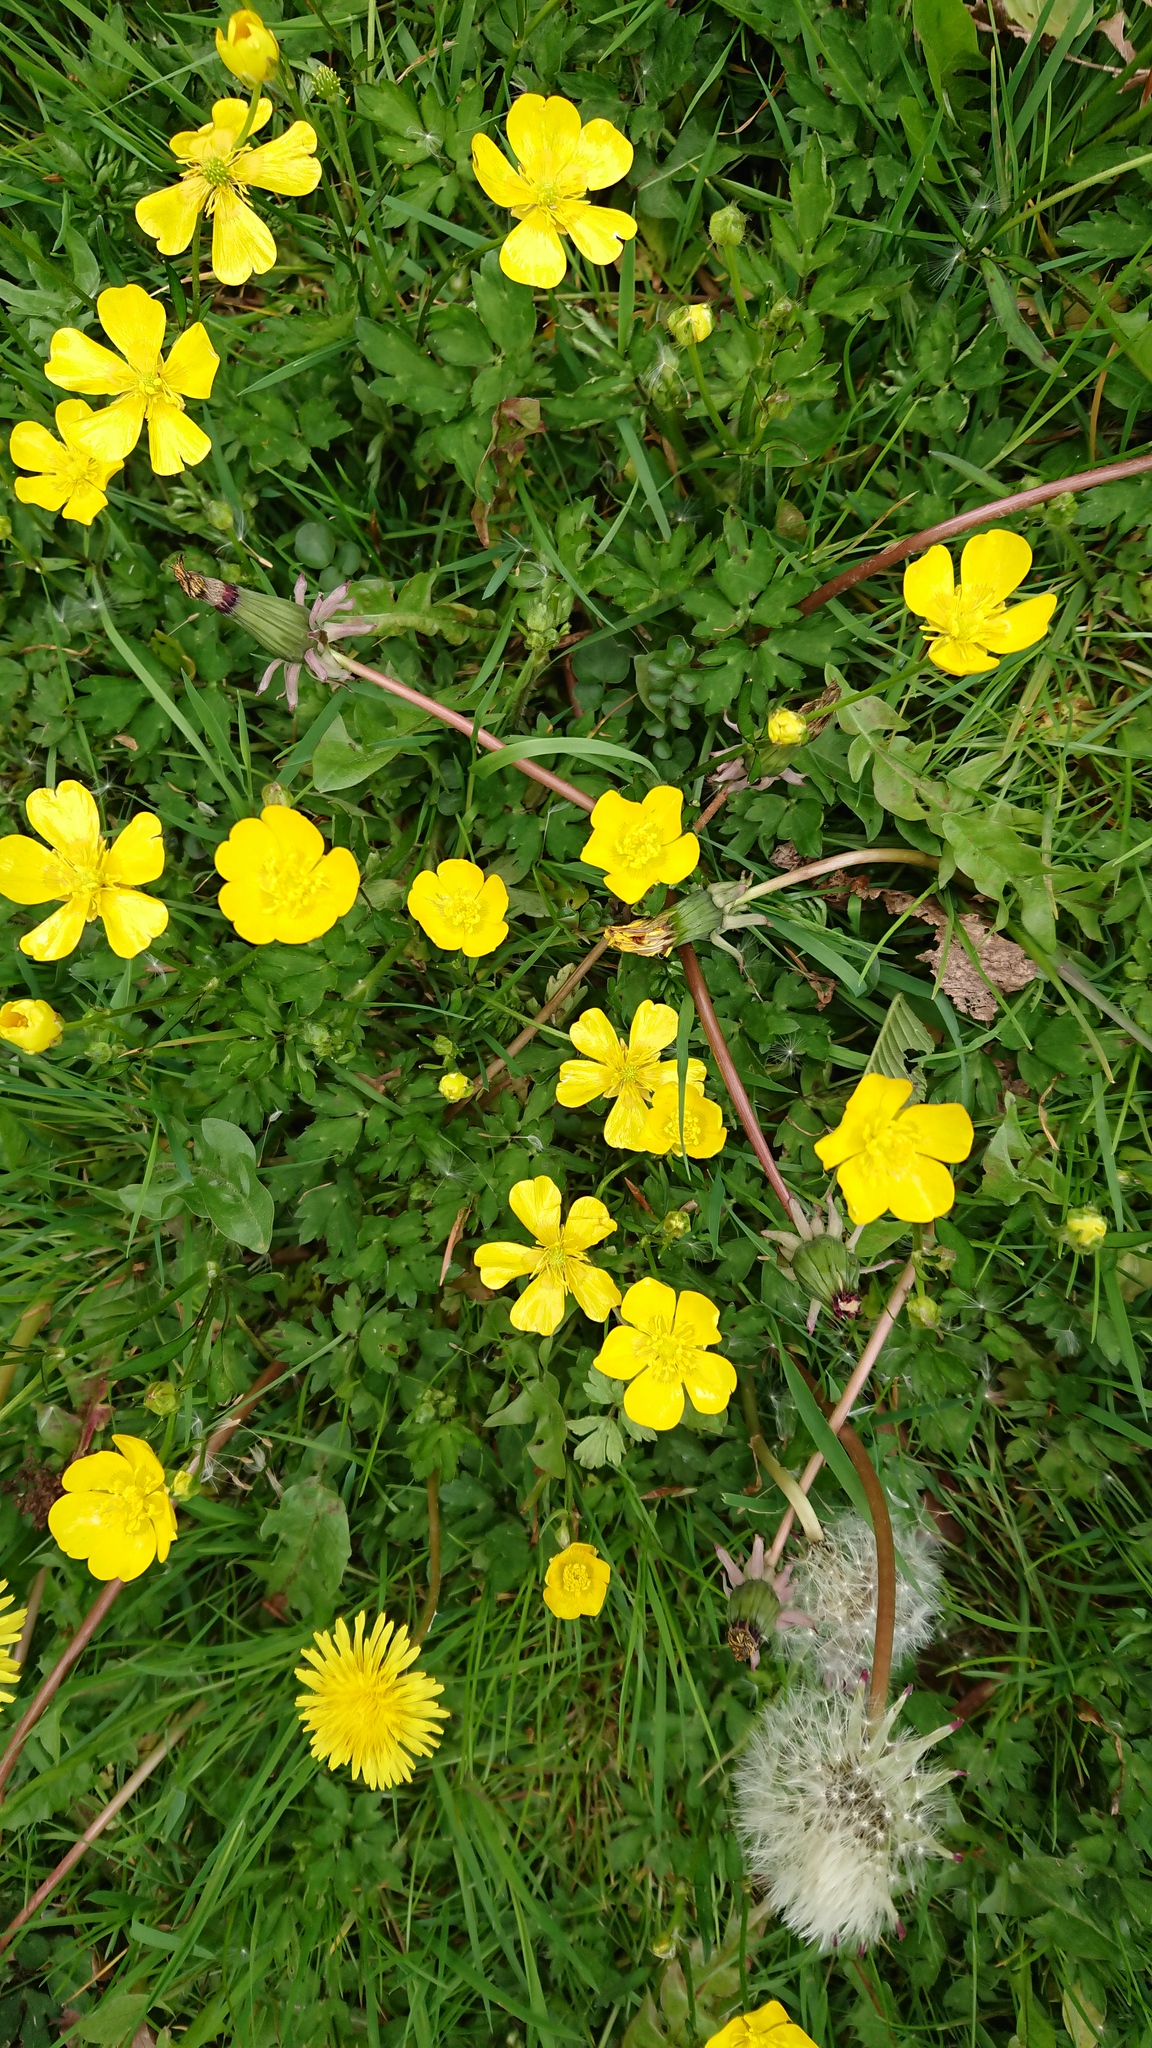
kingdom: Plantae
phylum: Tracheophyta
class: Magnoliopsida
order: Ranunculales
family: Ranunculaceae
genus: Ranunculus
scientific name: Ranunculus repens
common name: Creeping buttercup
